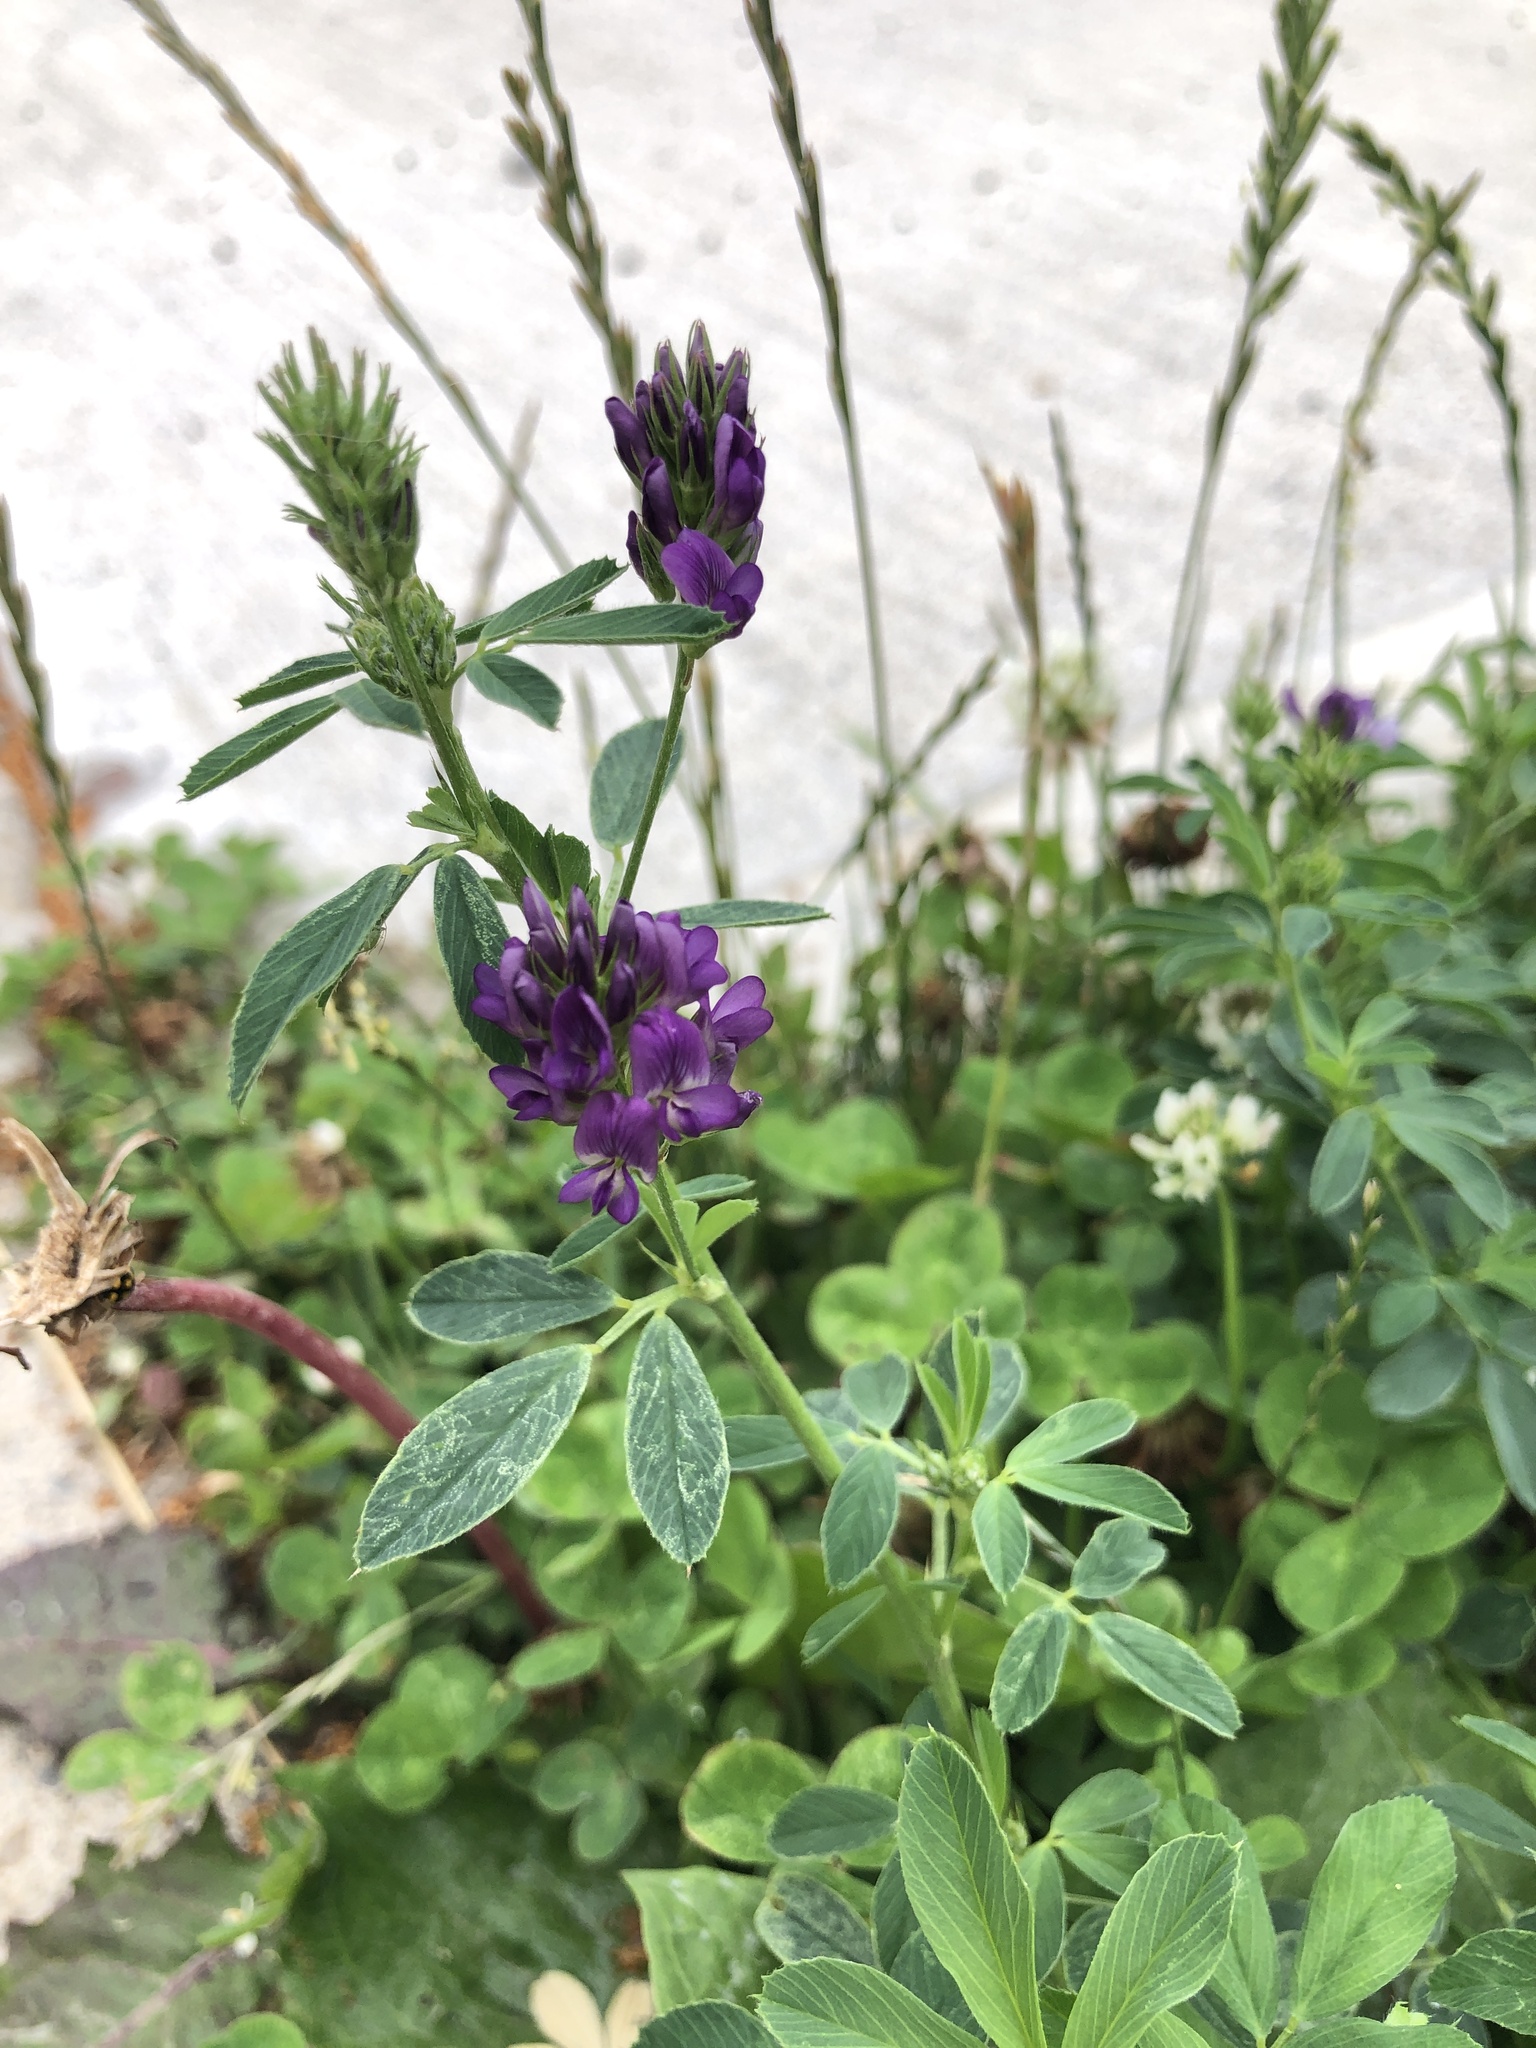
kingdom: Plantae
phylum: Tracheophyta
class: Magnoliopsida
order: Fabales
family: Fabaceae
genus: Medicago
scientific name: Medicago sativa
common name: Alfalfa
